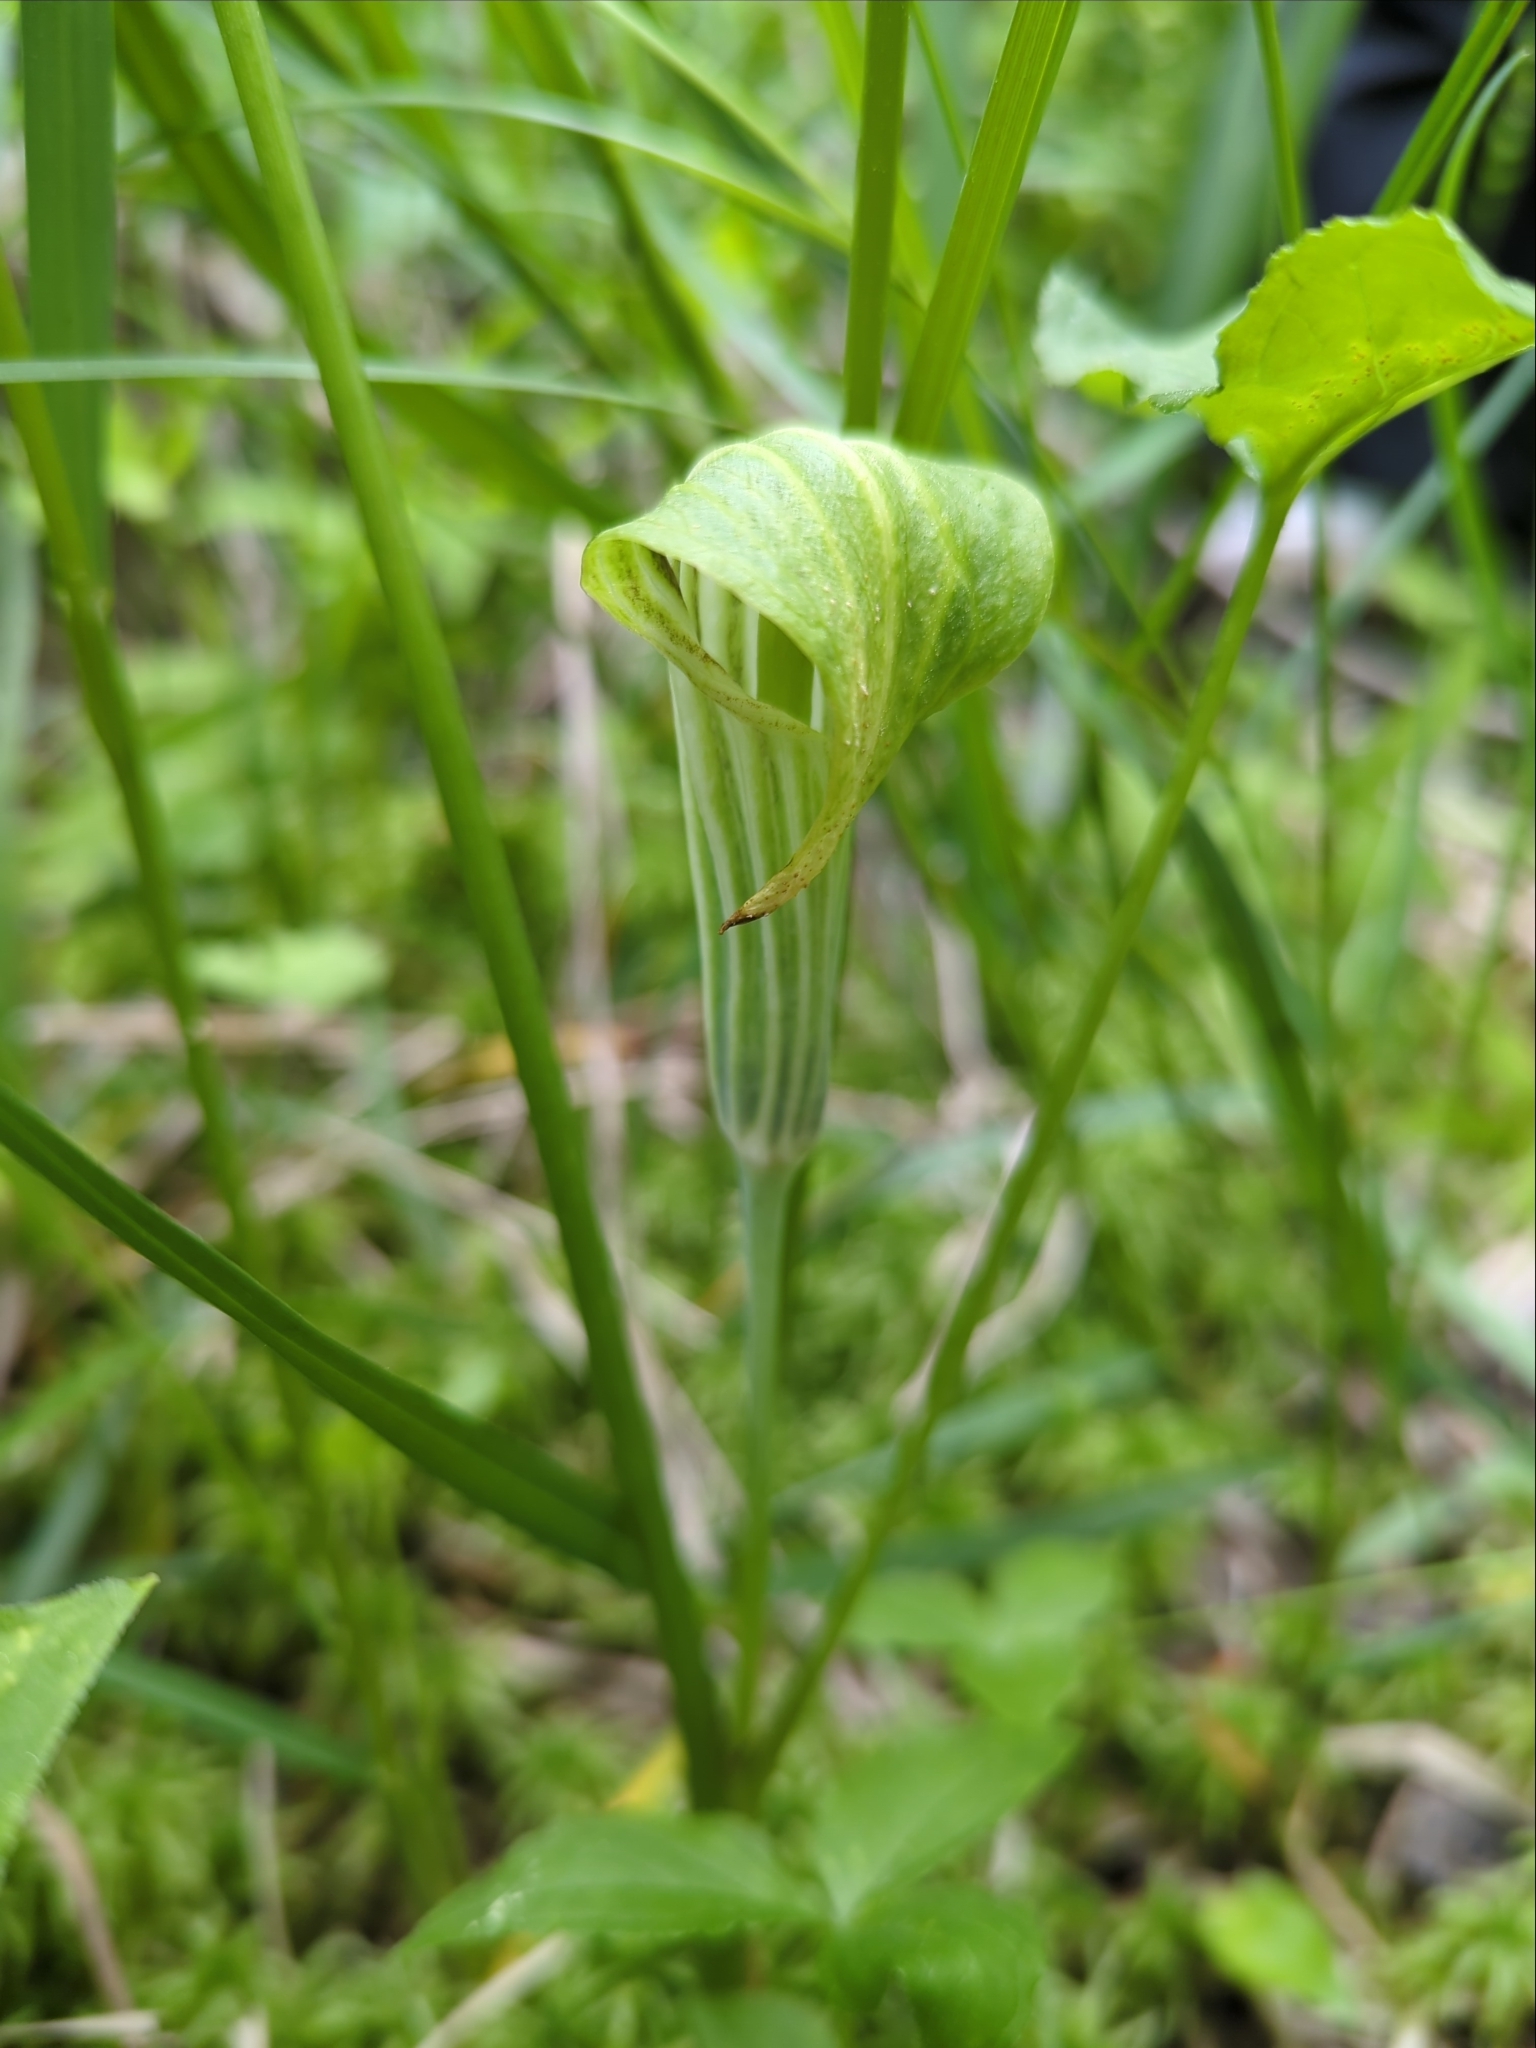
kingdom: Plantae
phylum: Tracheophyta
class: Liliopsida
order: Alismatales
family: Araceae
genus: Arisaema
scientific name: Arisaema stewardsonii
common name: Swamp jack-in-the-pulpit
